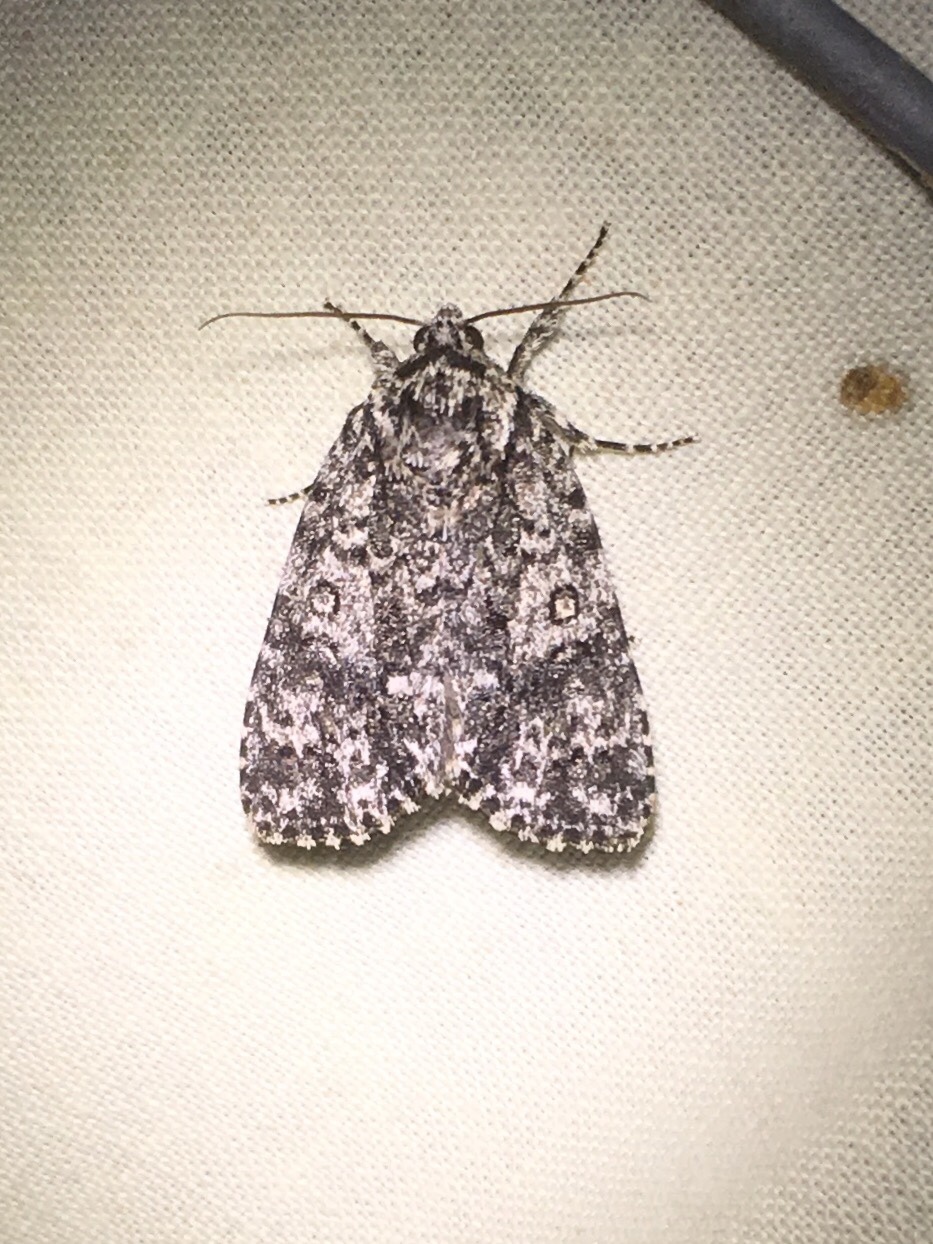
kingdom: Animalia
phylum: Arthropoda
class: Insecta
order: Lepidoptera
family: Noctuidae
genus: Acronicta
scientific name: Acronicta noctivaga
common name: Night-wandering dagger
